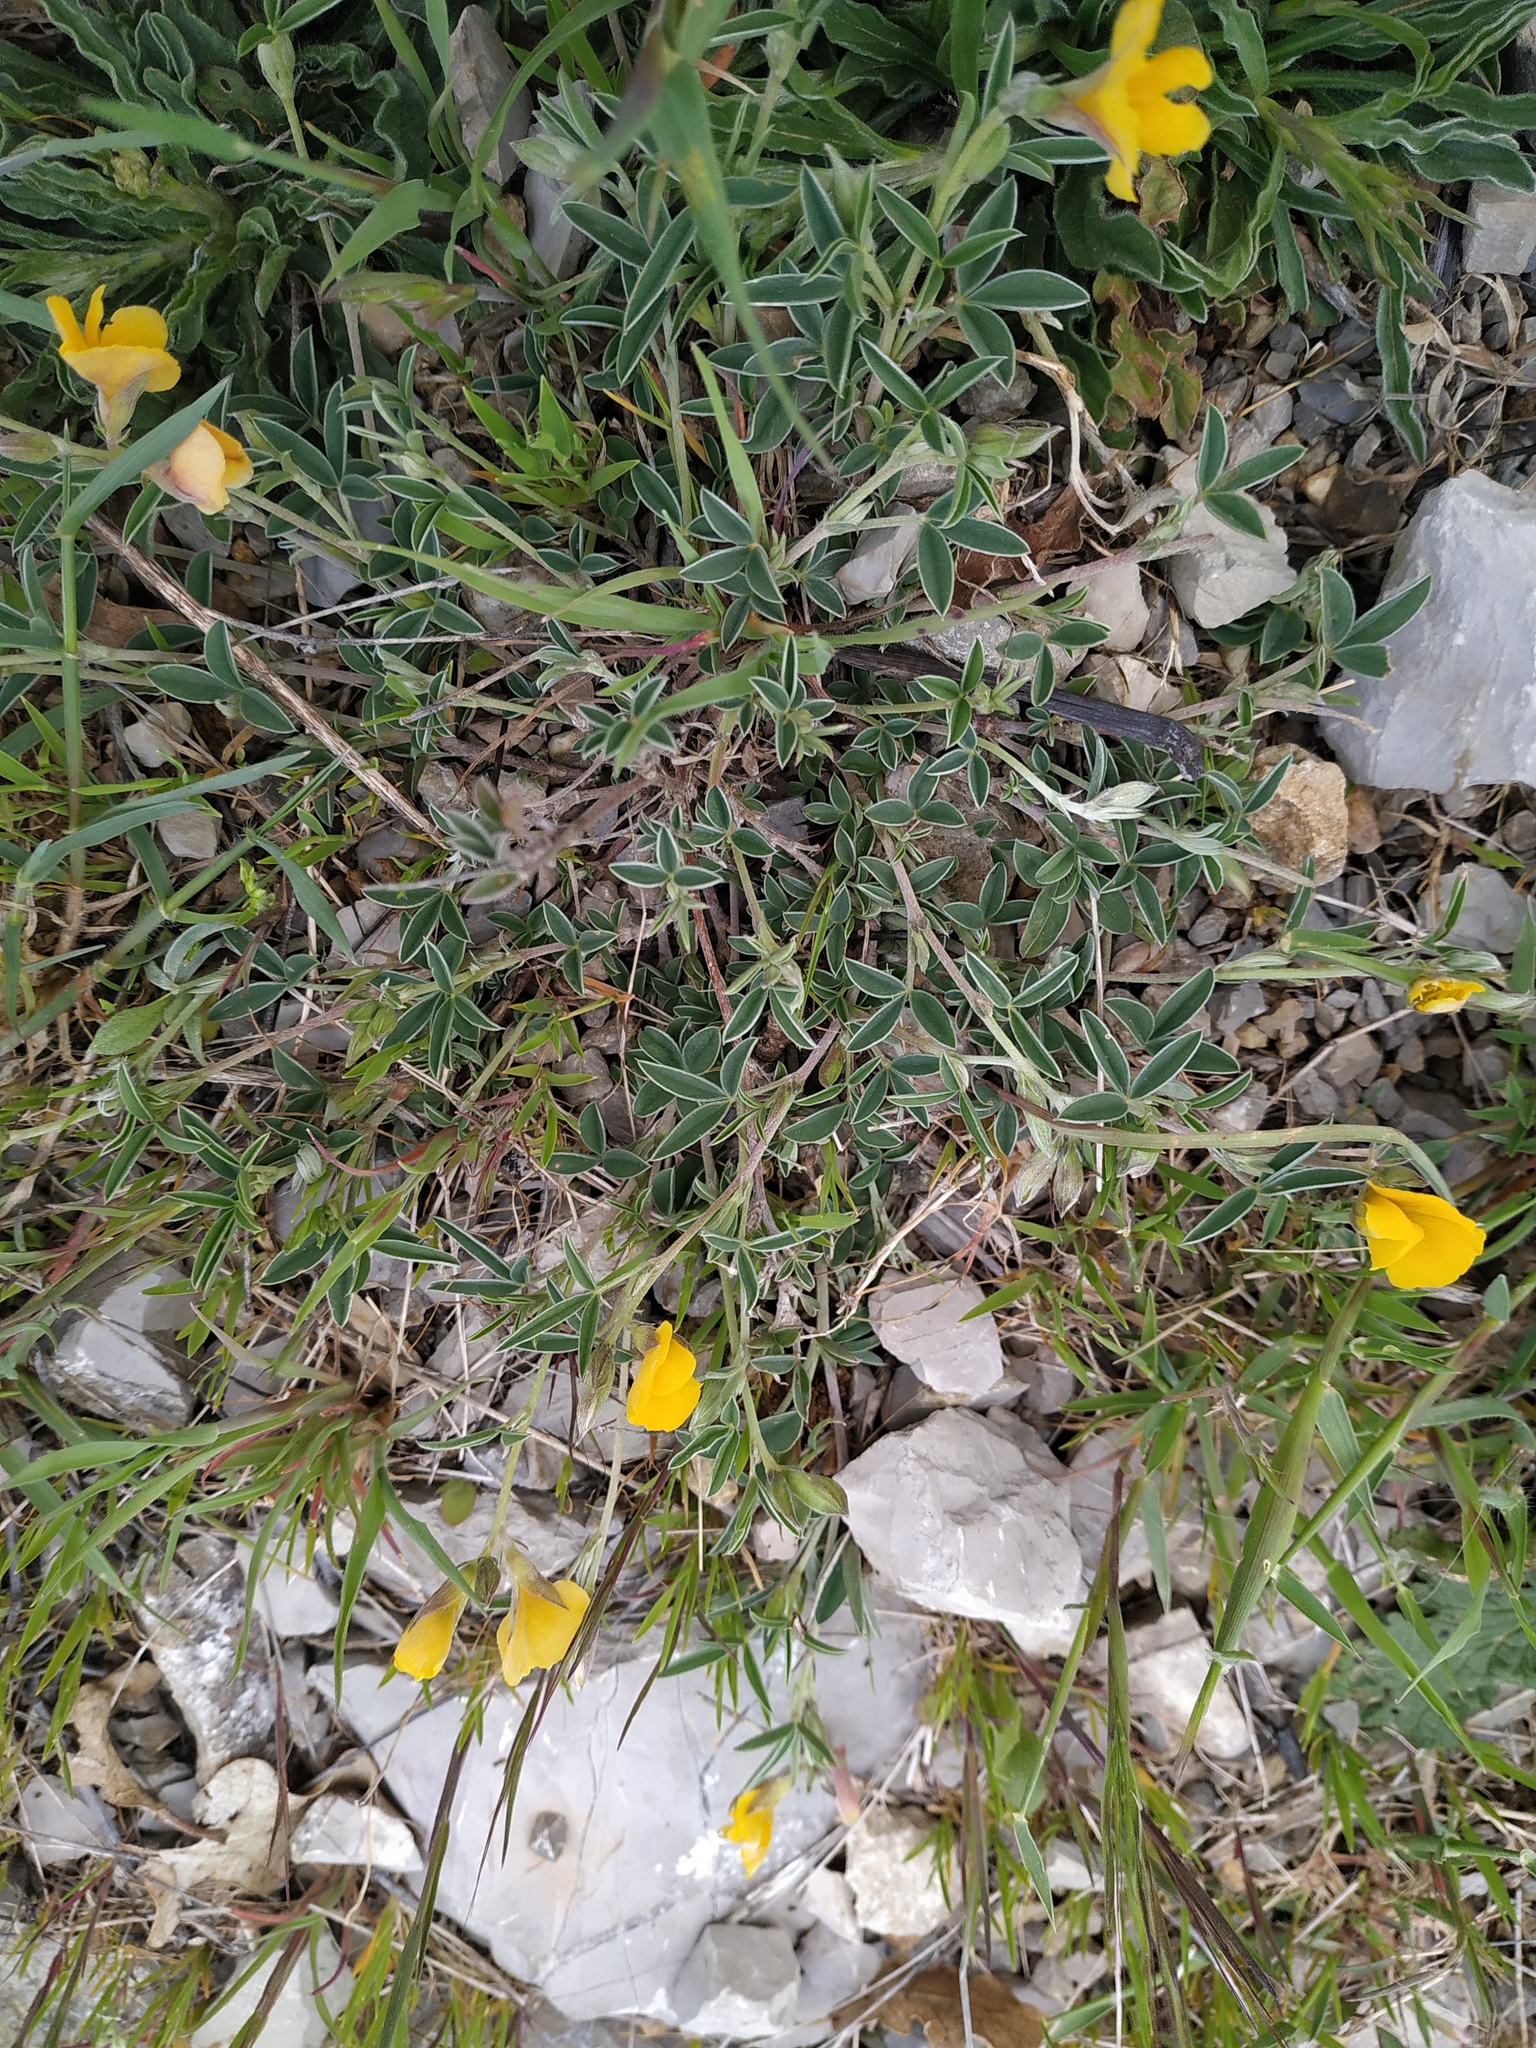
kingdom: Plantae
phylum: Tracheophyta
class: Magnoliopsida
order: Fabales
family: Fabaceae
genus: Argyrolobium
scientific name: Argyrolobium zanonii
